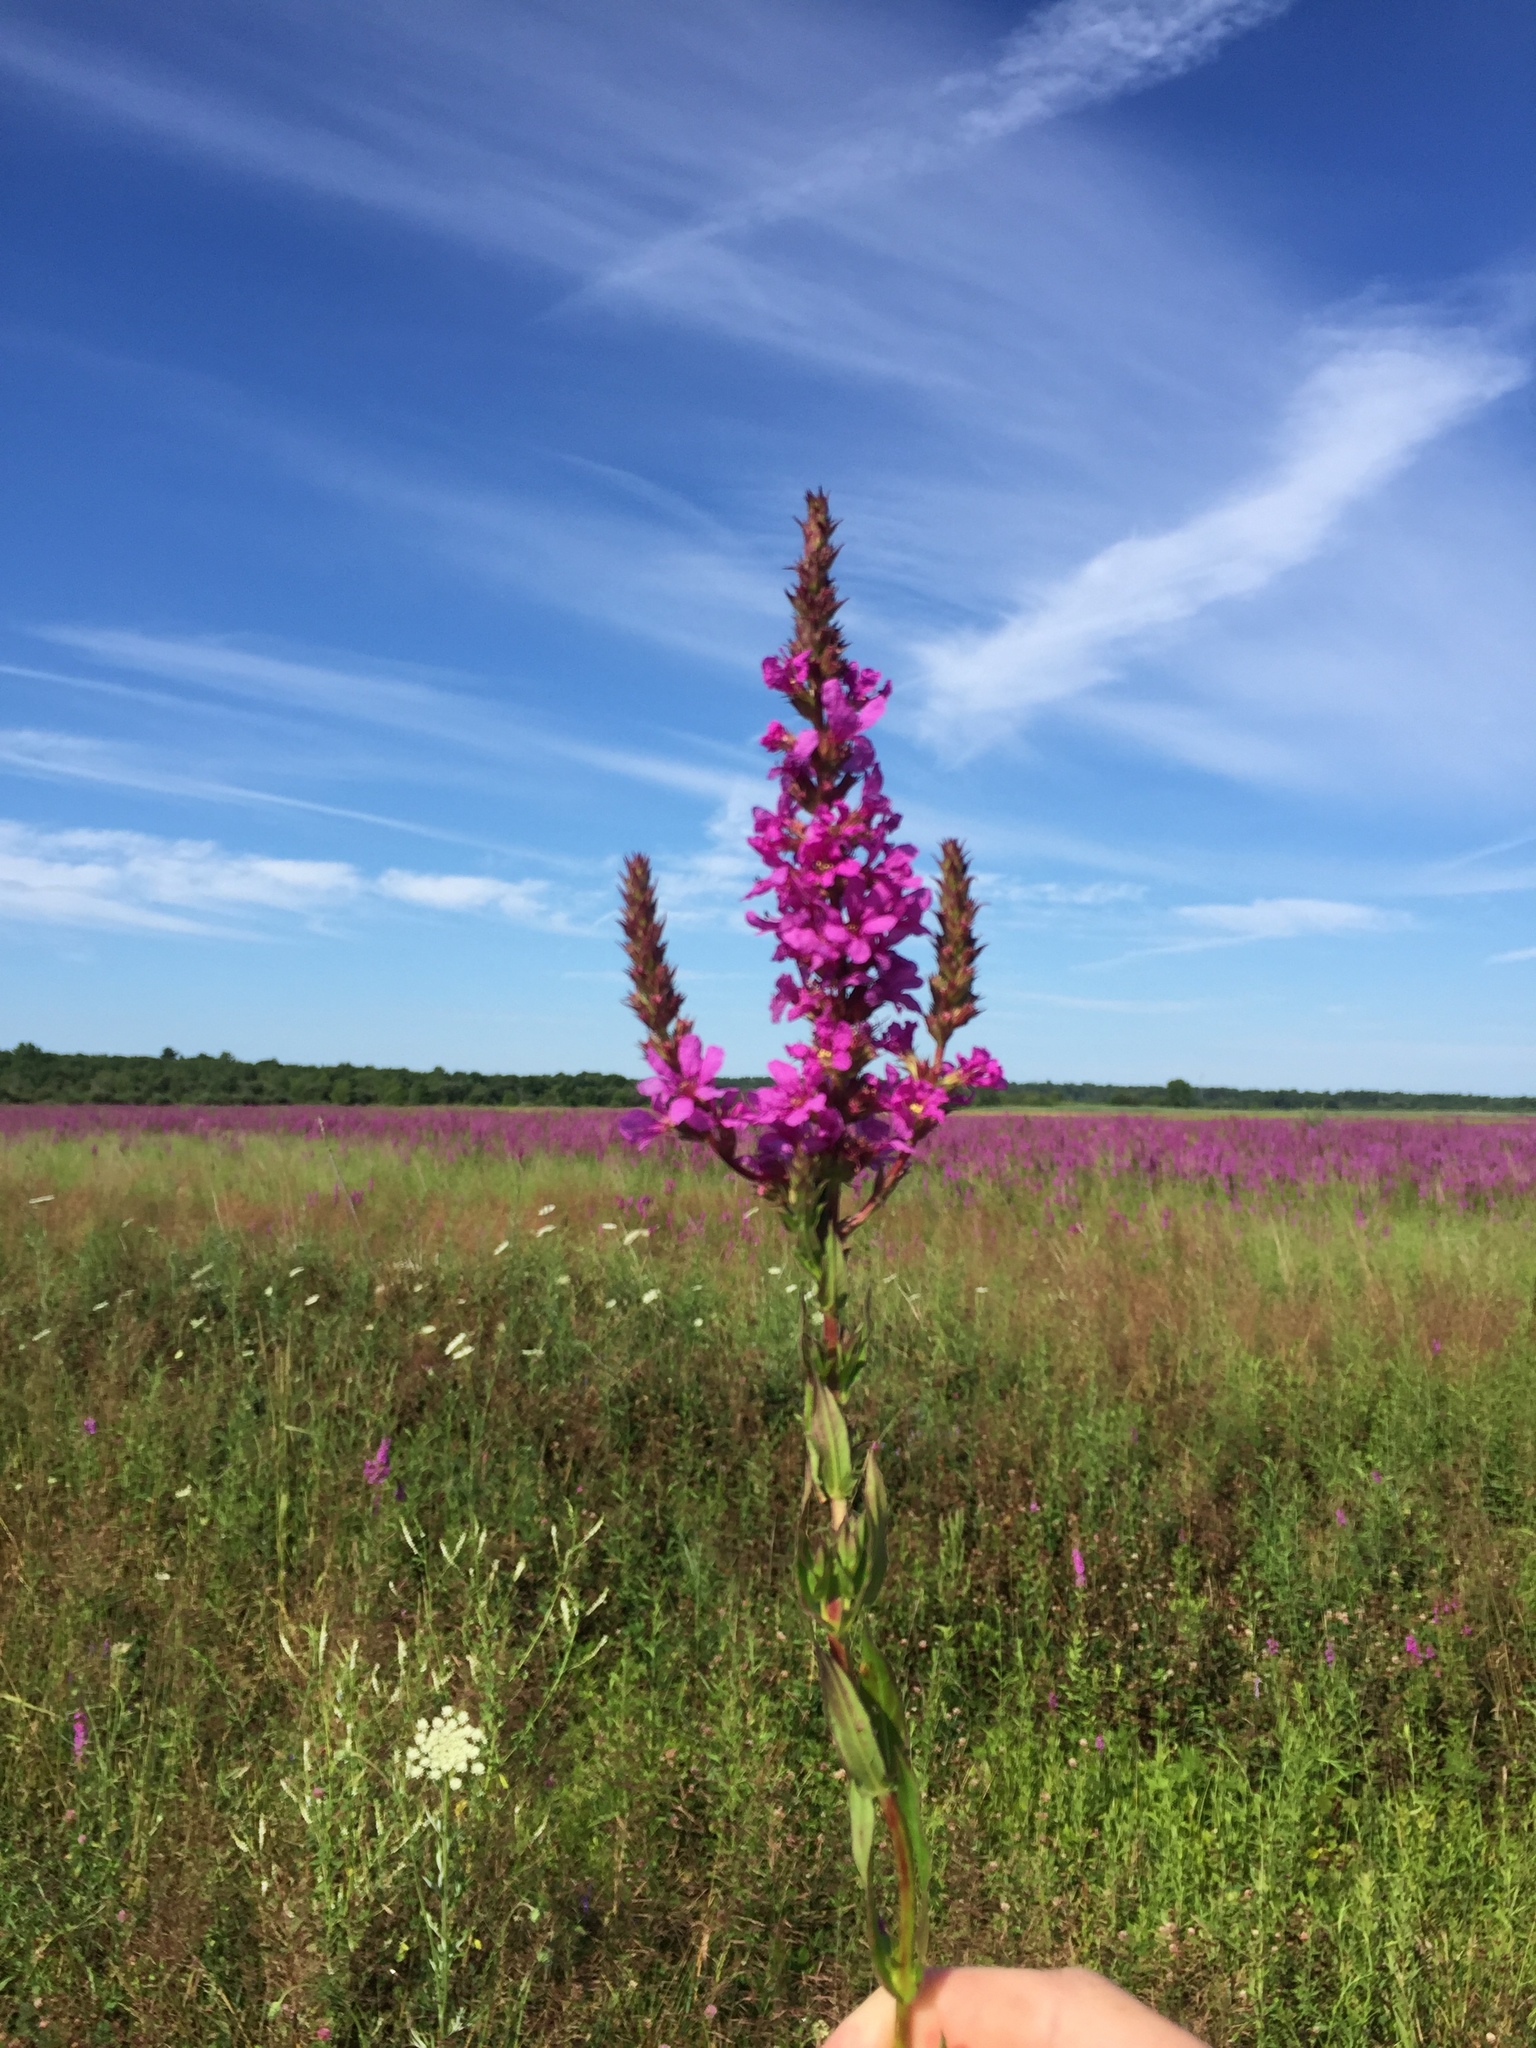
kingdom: Plantae
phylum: Tracheophyta
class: Magnoliopsida
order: Myrtales
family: Lythraceae
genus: Lythrum
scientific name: Lythrum salicaria
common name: Purple loosestrife
